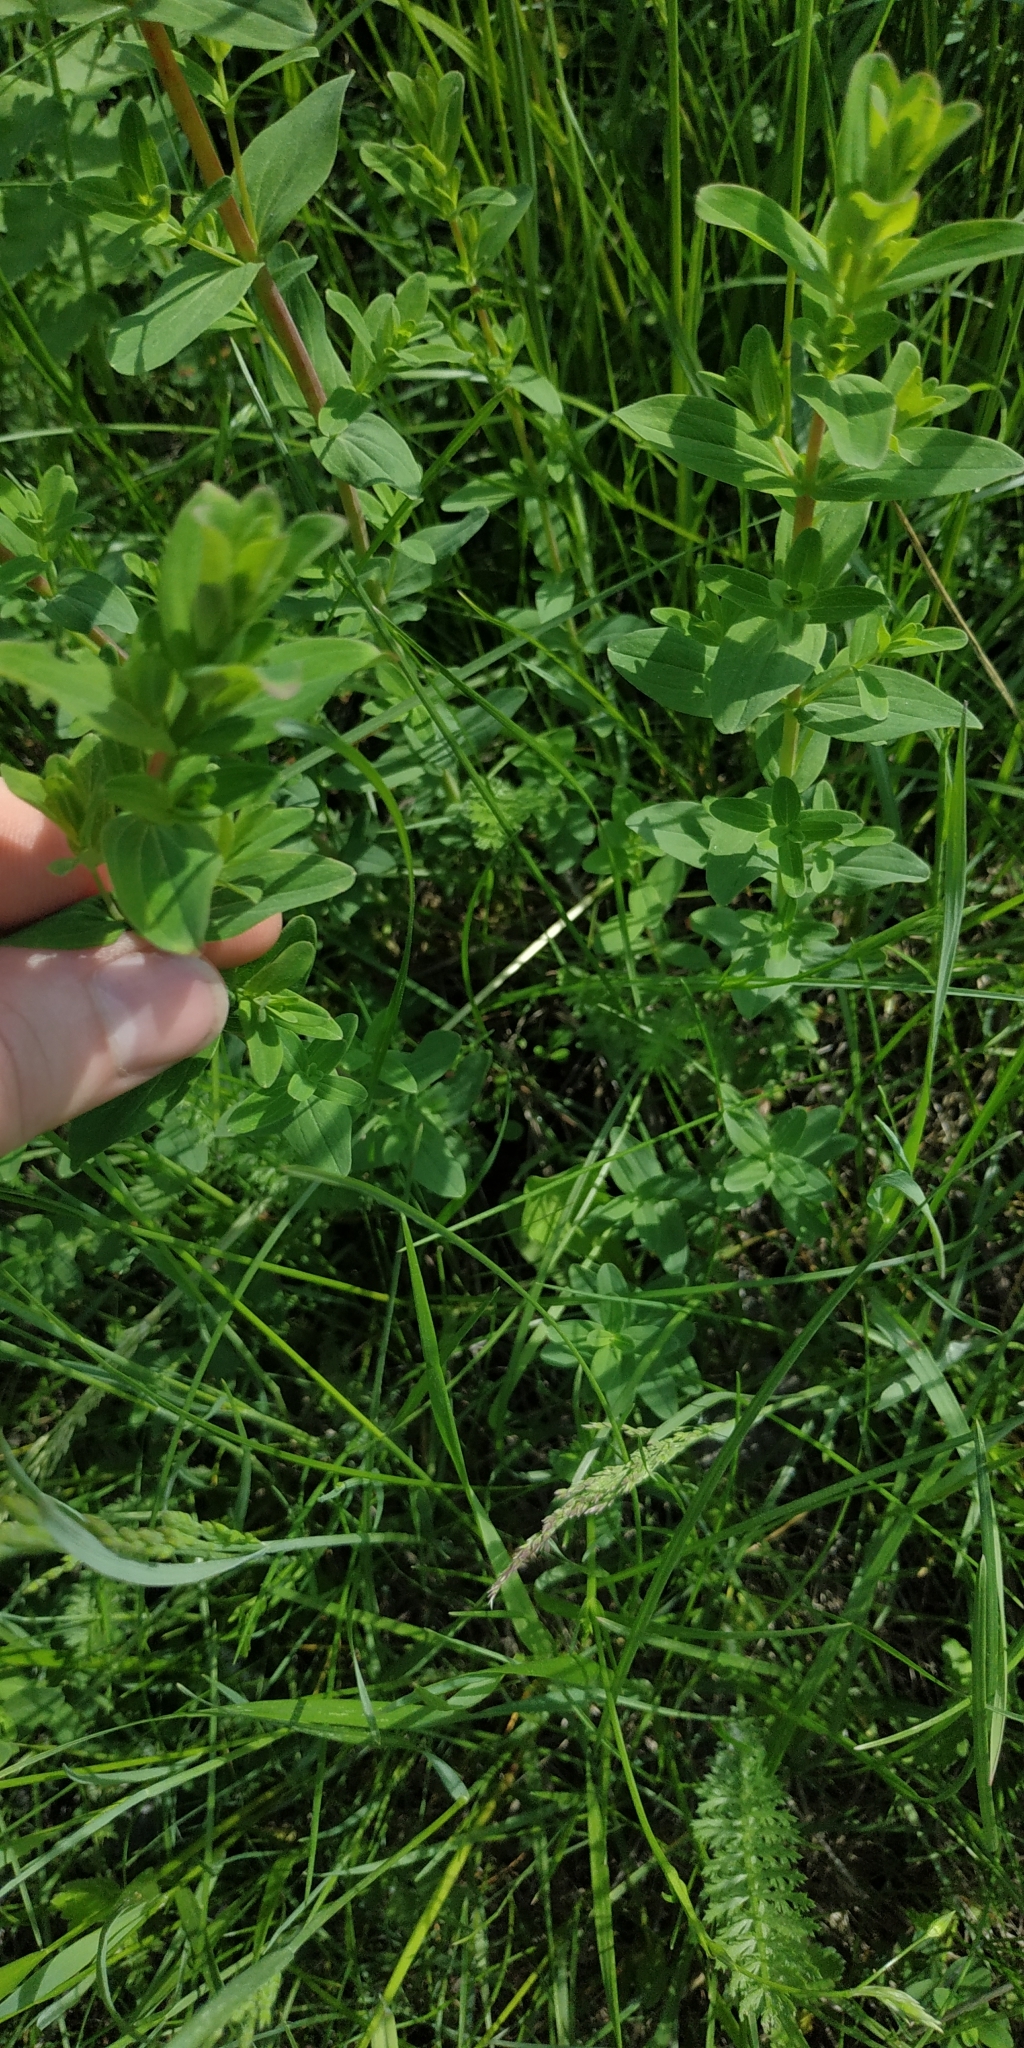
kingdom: Plantae
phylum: Tracheophyta
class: Magnoliopsida
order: Malpighiales
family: Hypericaceae
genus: Hypericum
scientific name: Hypericum perforatum
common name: Common st. johnswort
